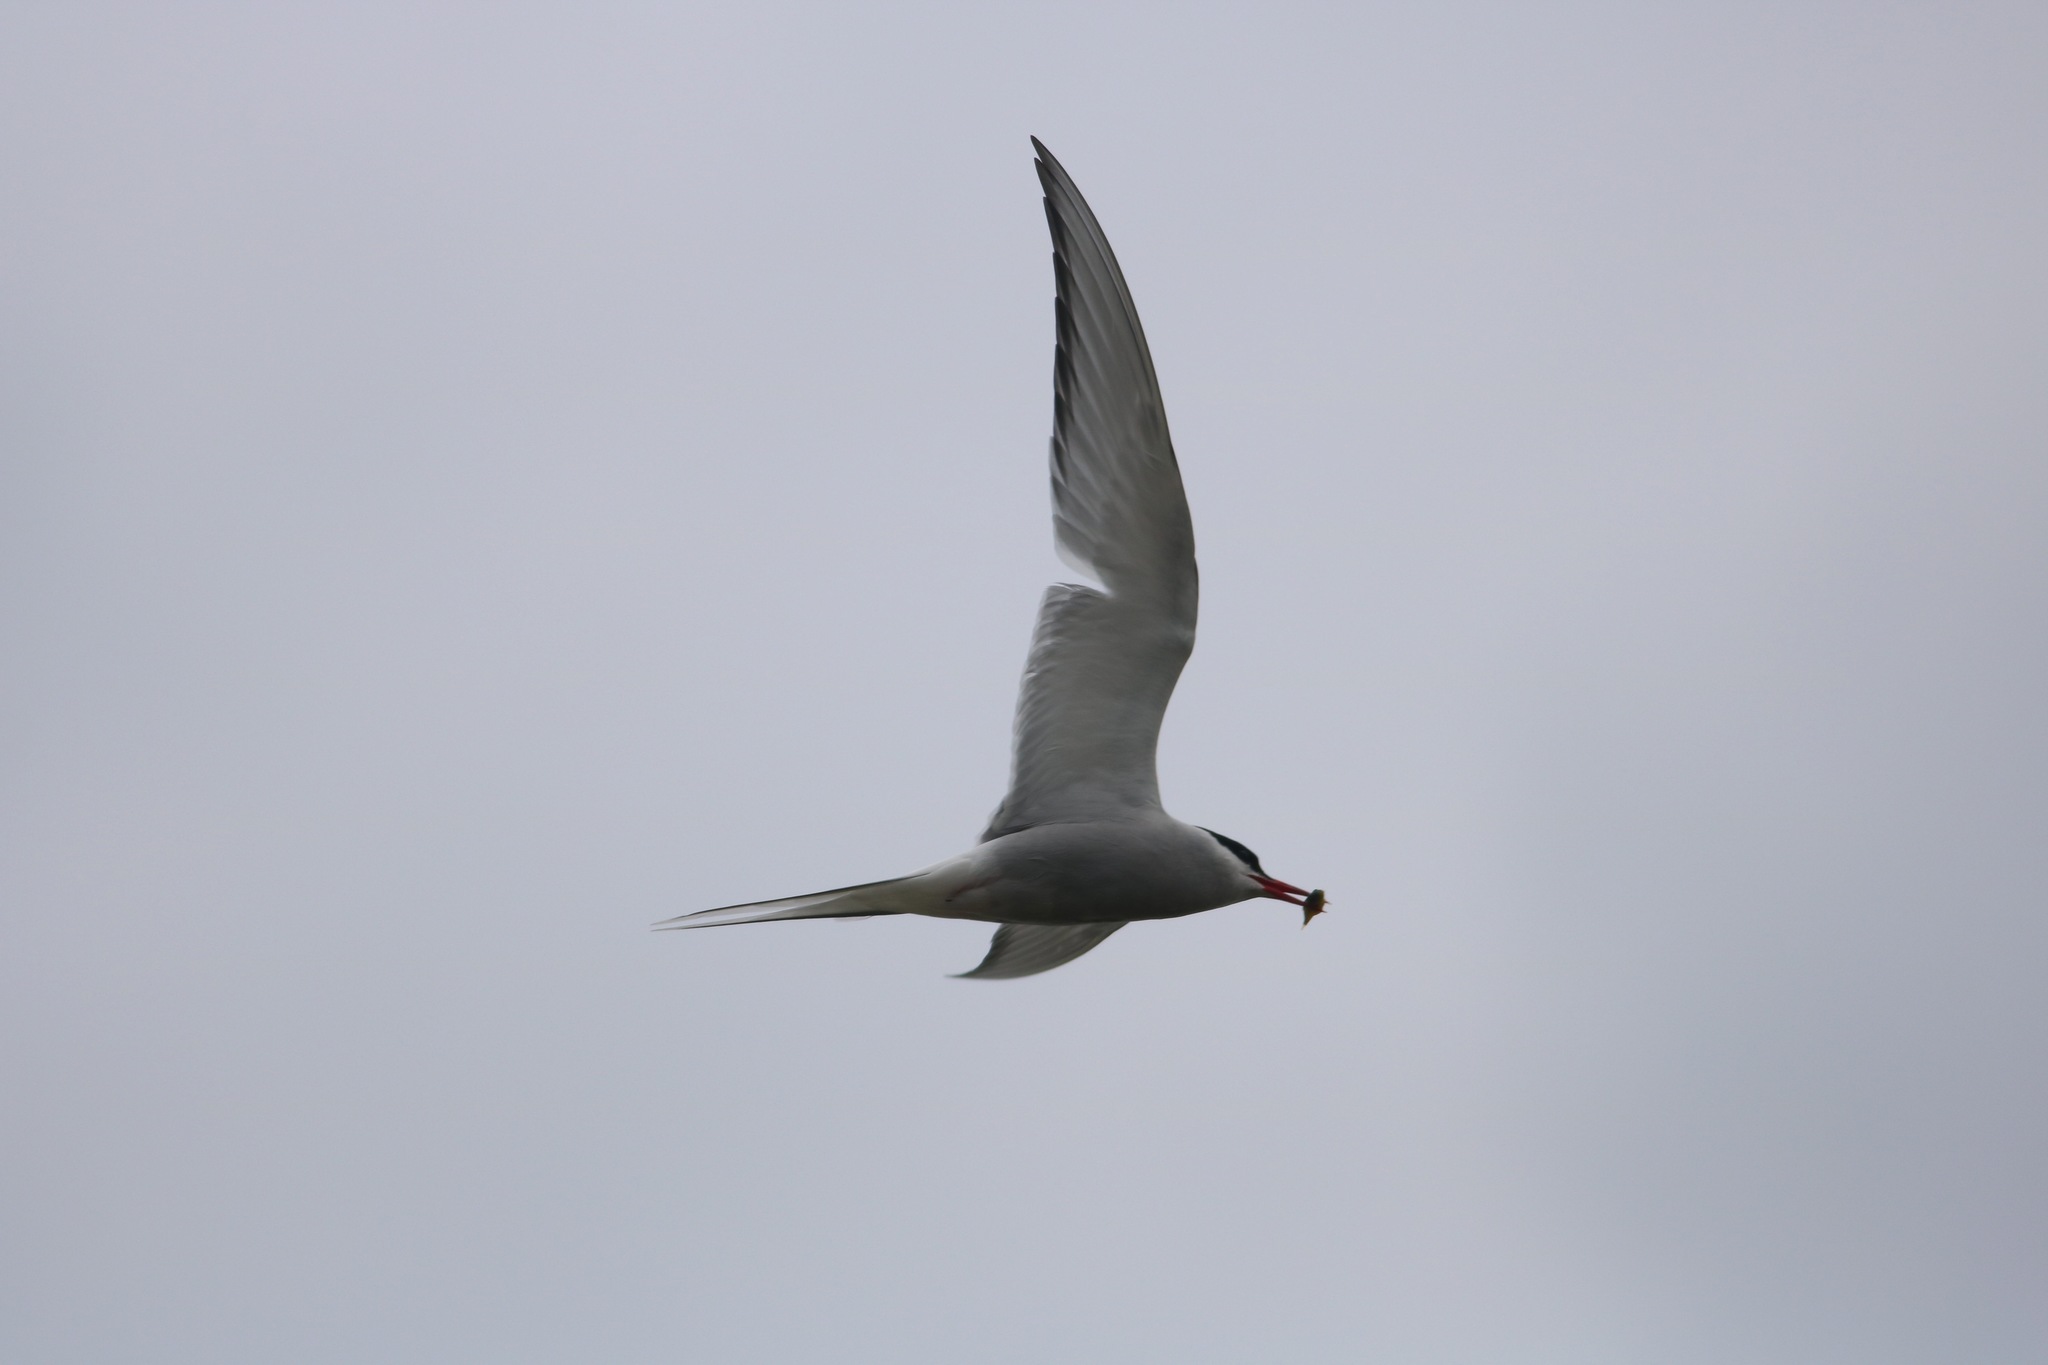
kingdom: Animalia
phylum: Chordata
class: Aves
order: Charadriiformes
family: Laridae
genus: Sterna
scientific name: Sterna paradisaea
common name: Arctic tern
